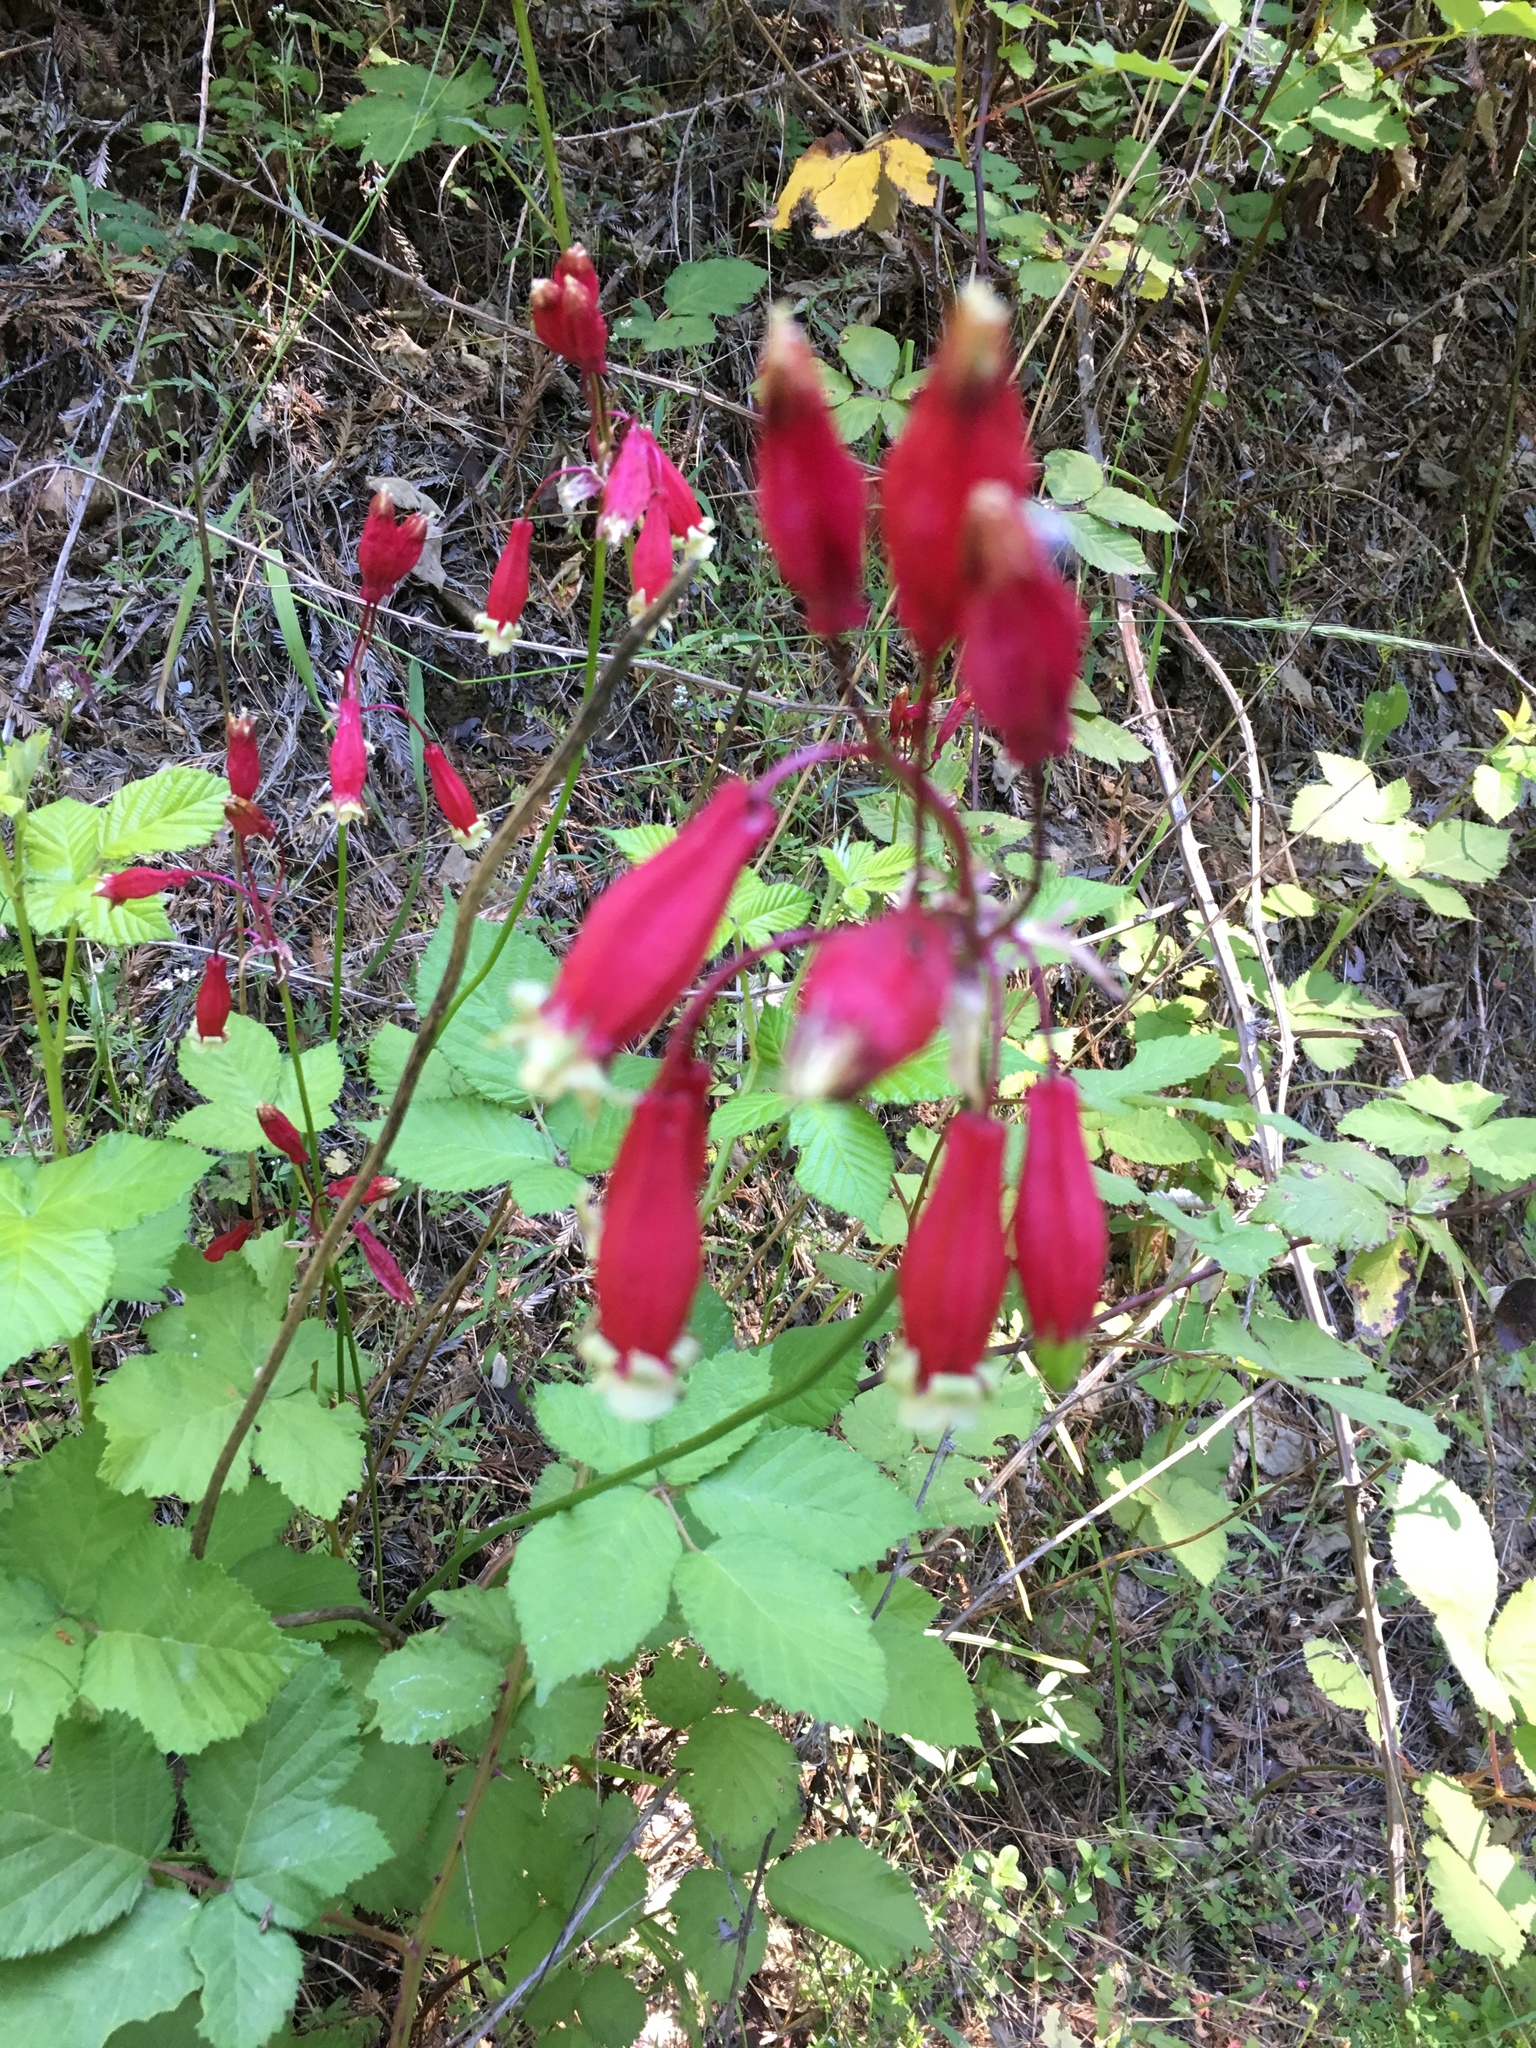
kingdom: Plantae
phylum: Tracheophyta
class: Liliopsida
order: Asparagales
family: Asparagaceae
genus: Dichelostemma
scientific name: Dichelostemma ida-maia
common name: Firecracker-flower
